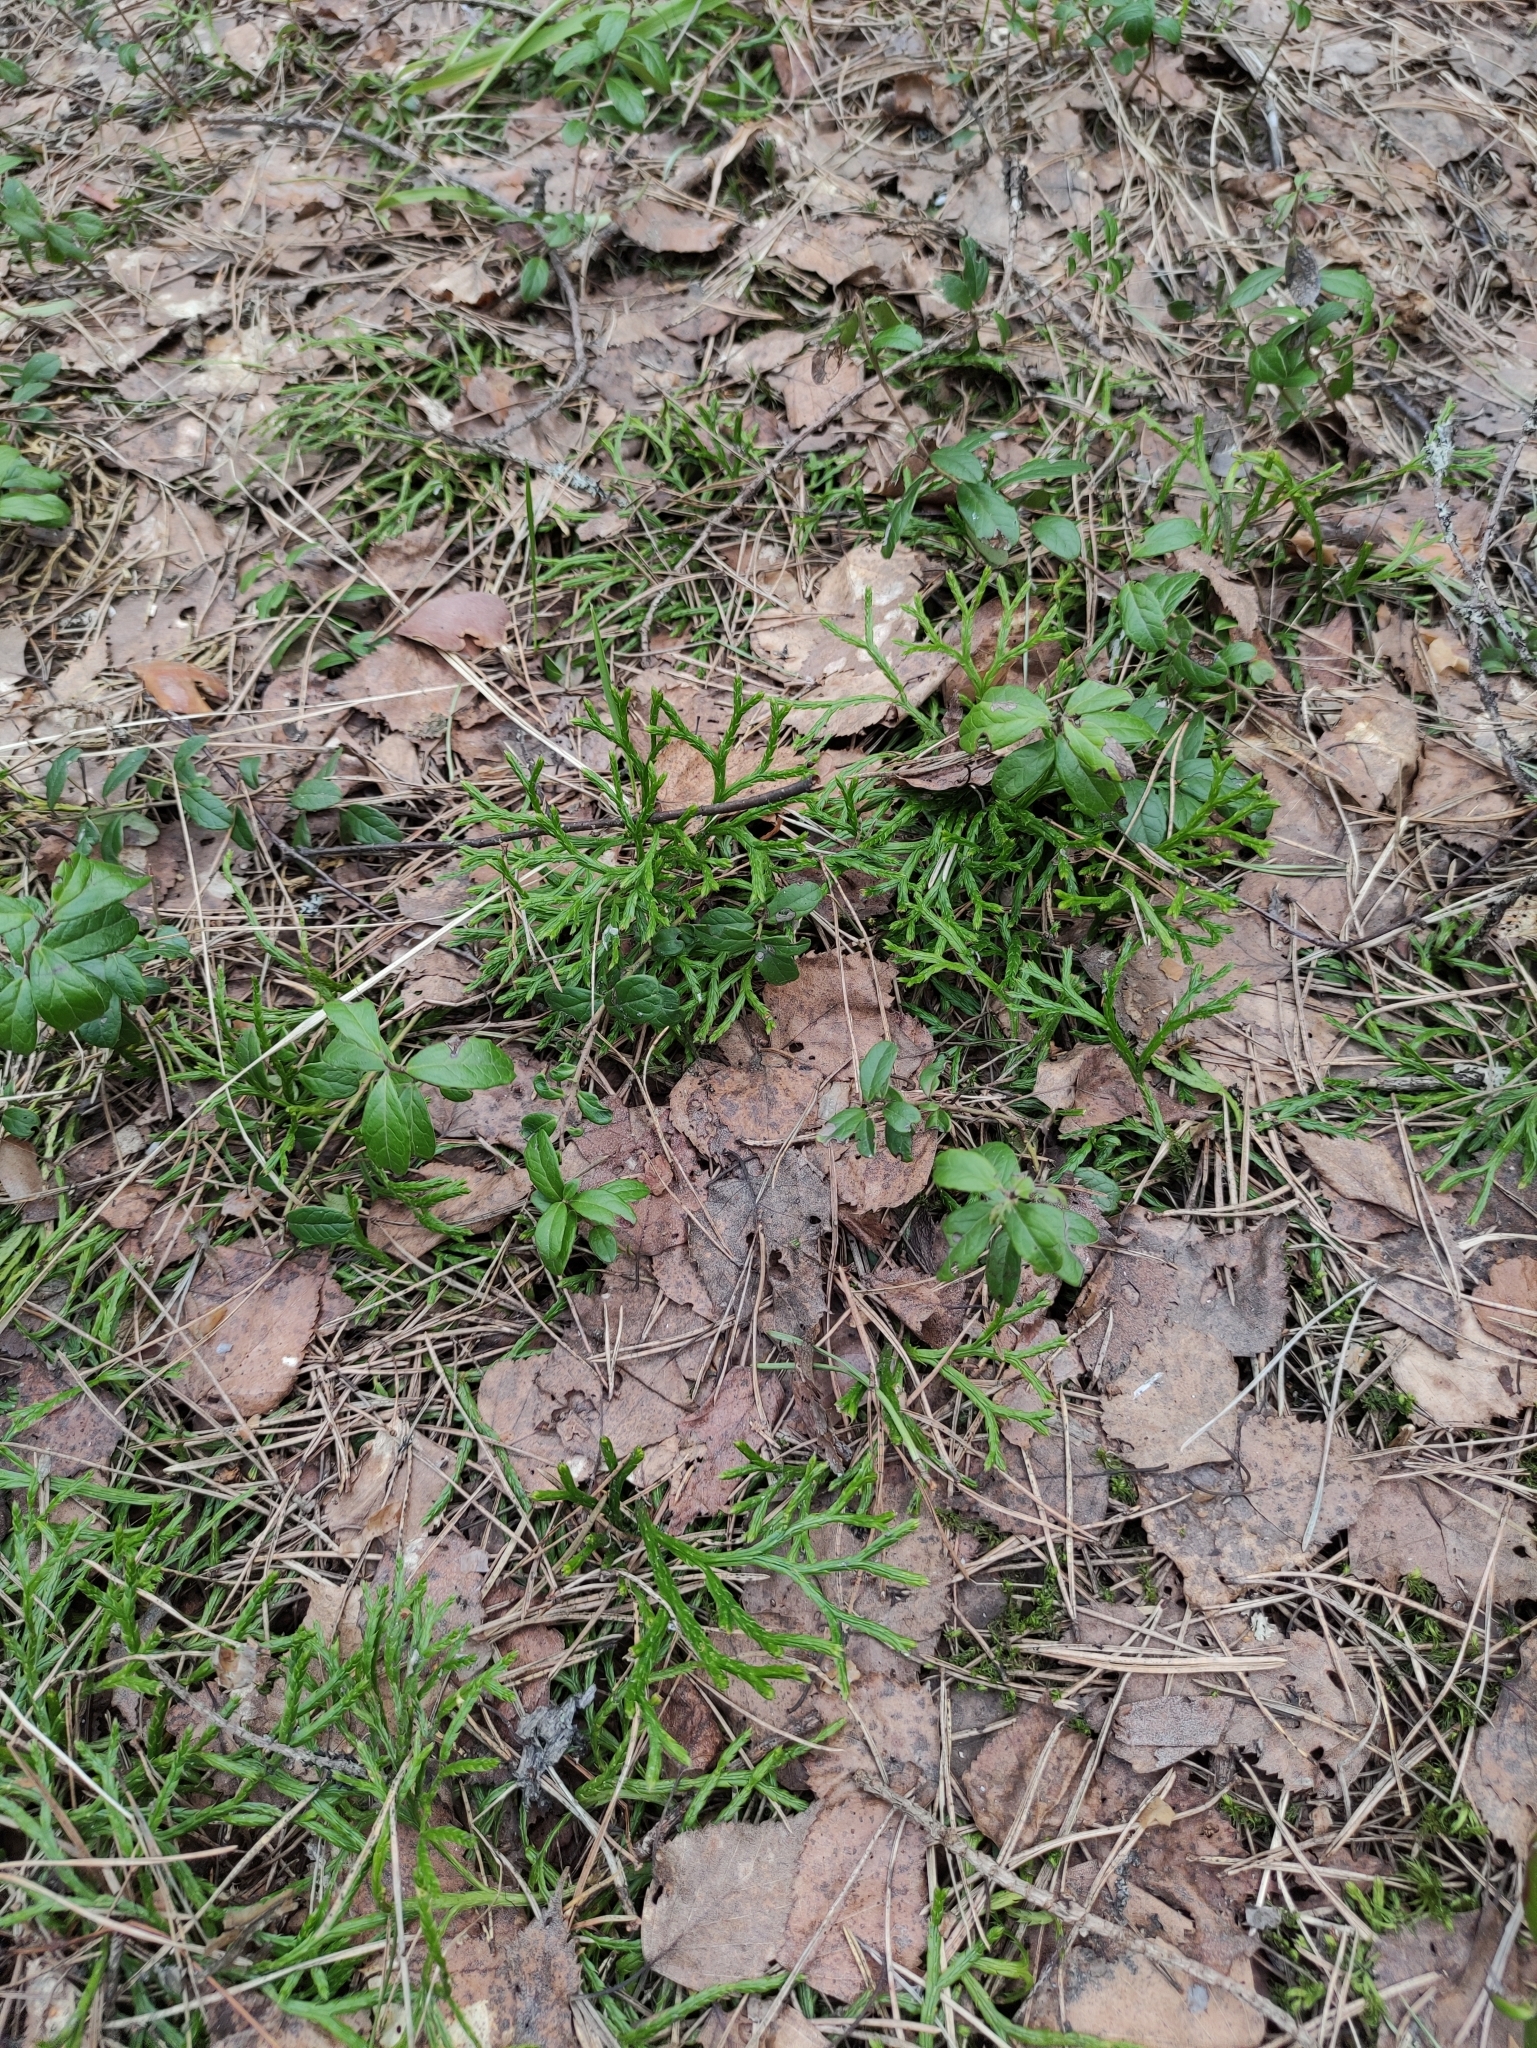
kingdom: Plantae
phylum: Tracheophyta
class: Lycopodiopsida
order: Lycopodiales
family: Lycopodiaceae
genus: Diphasiastrum
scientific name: Diphasiastrum complanatum
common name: Northern running-pine
